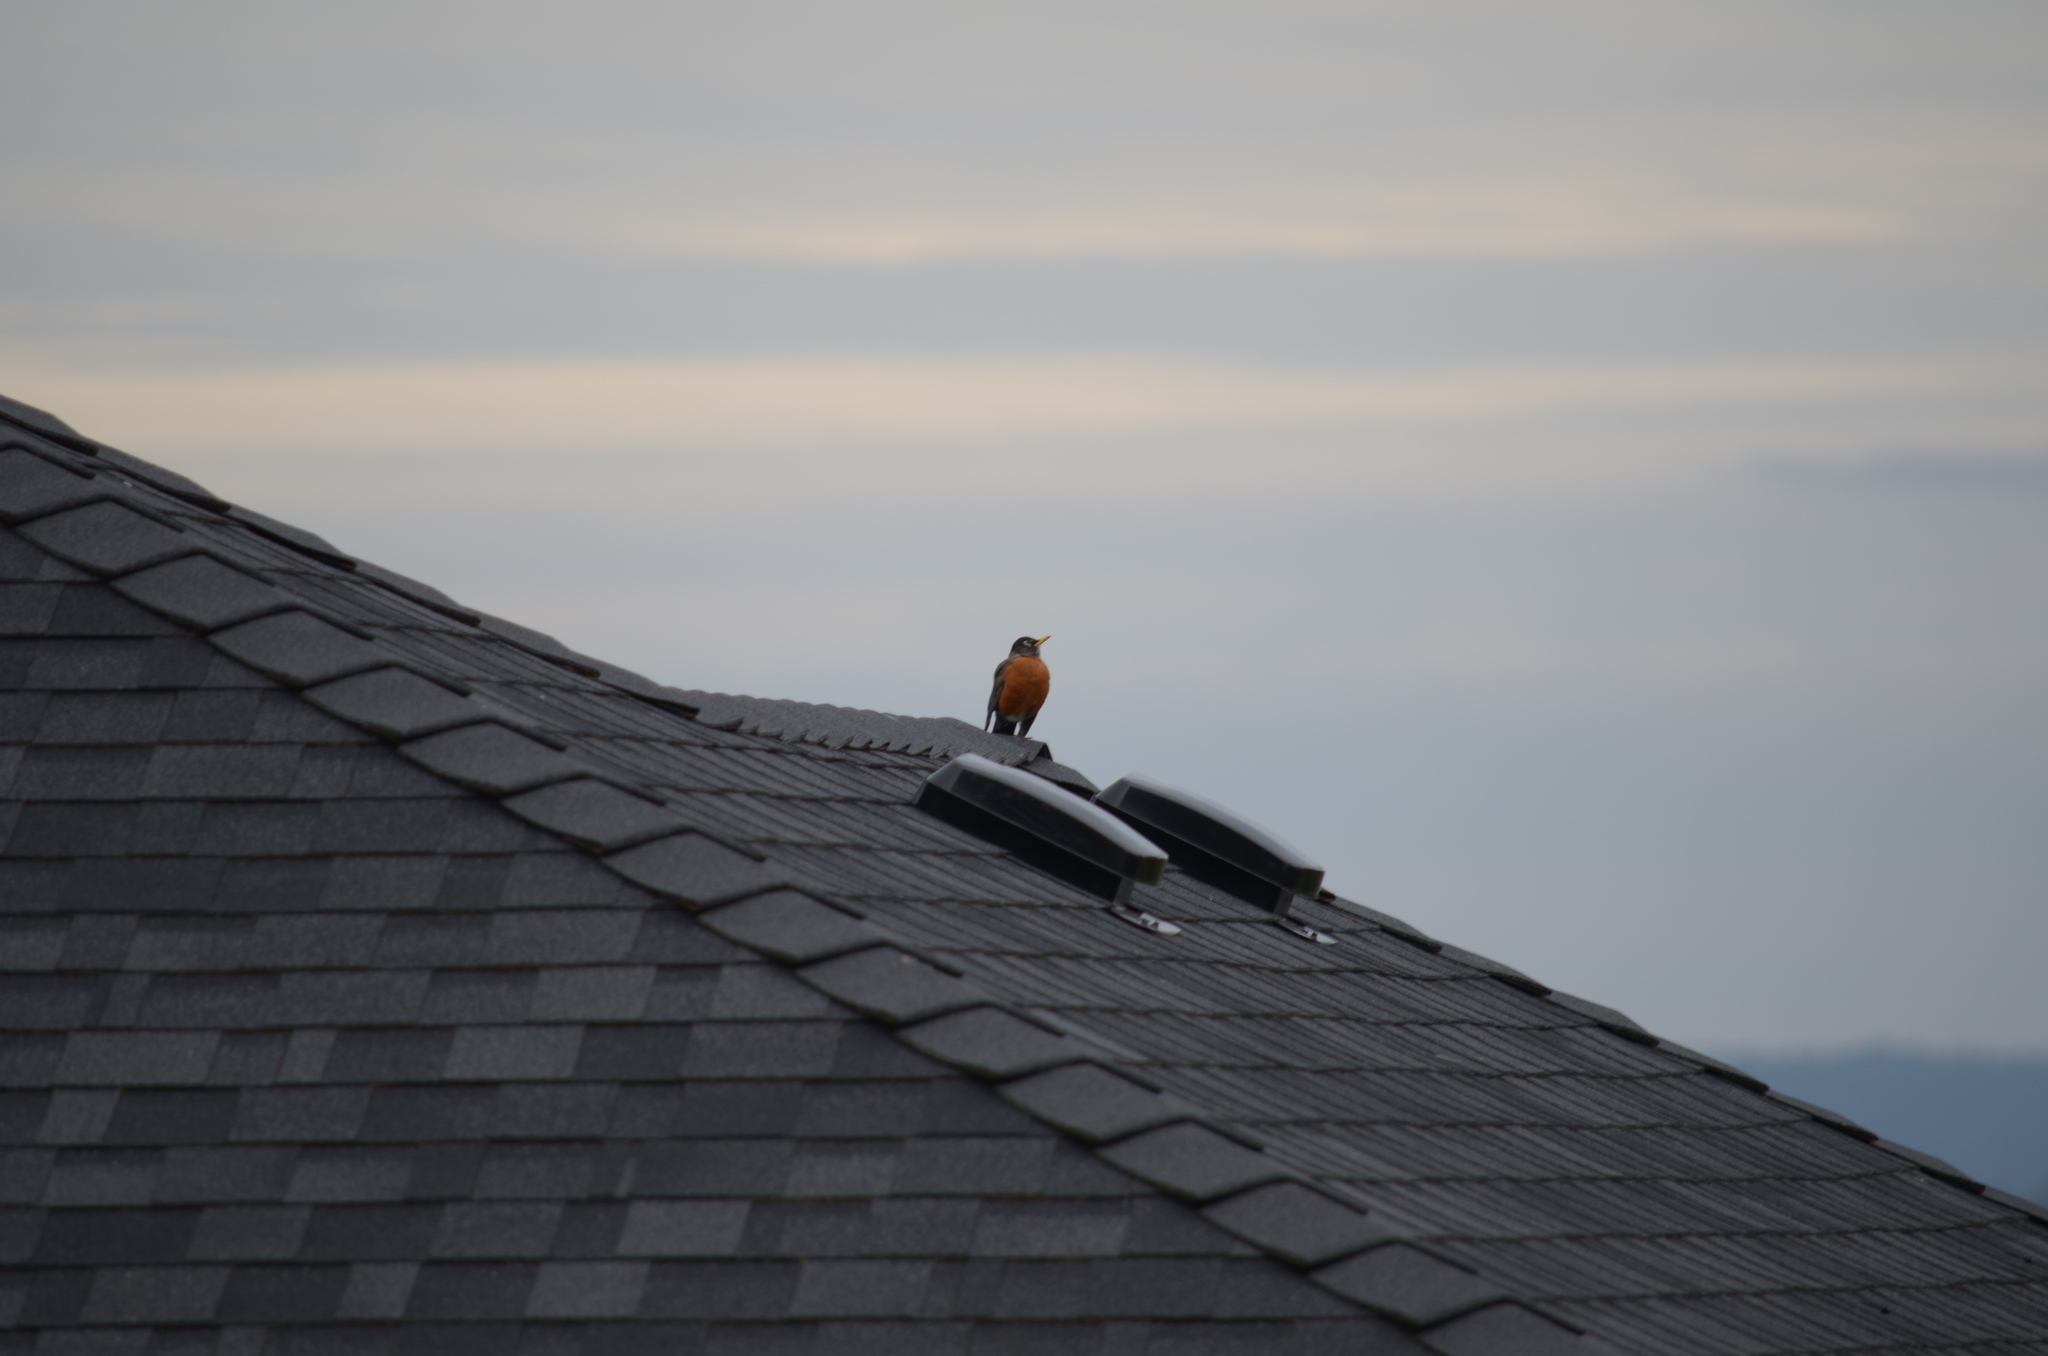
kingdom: Animalia
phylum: Chordata
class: Aves
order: Passeriformes
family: Turdidae
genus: Turdus
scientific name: Turdus migratorius
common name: American robin
